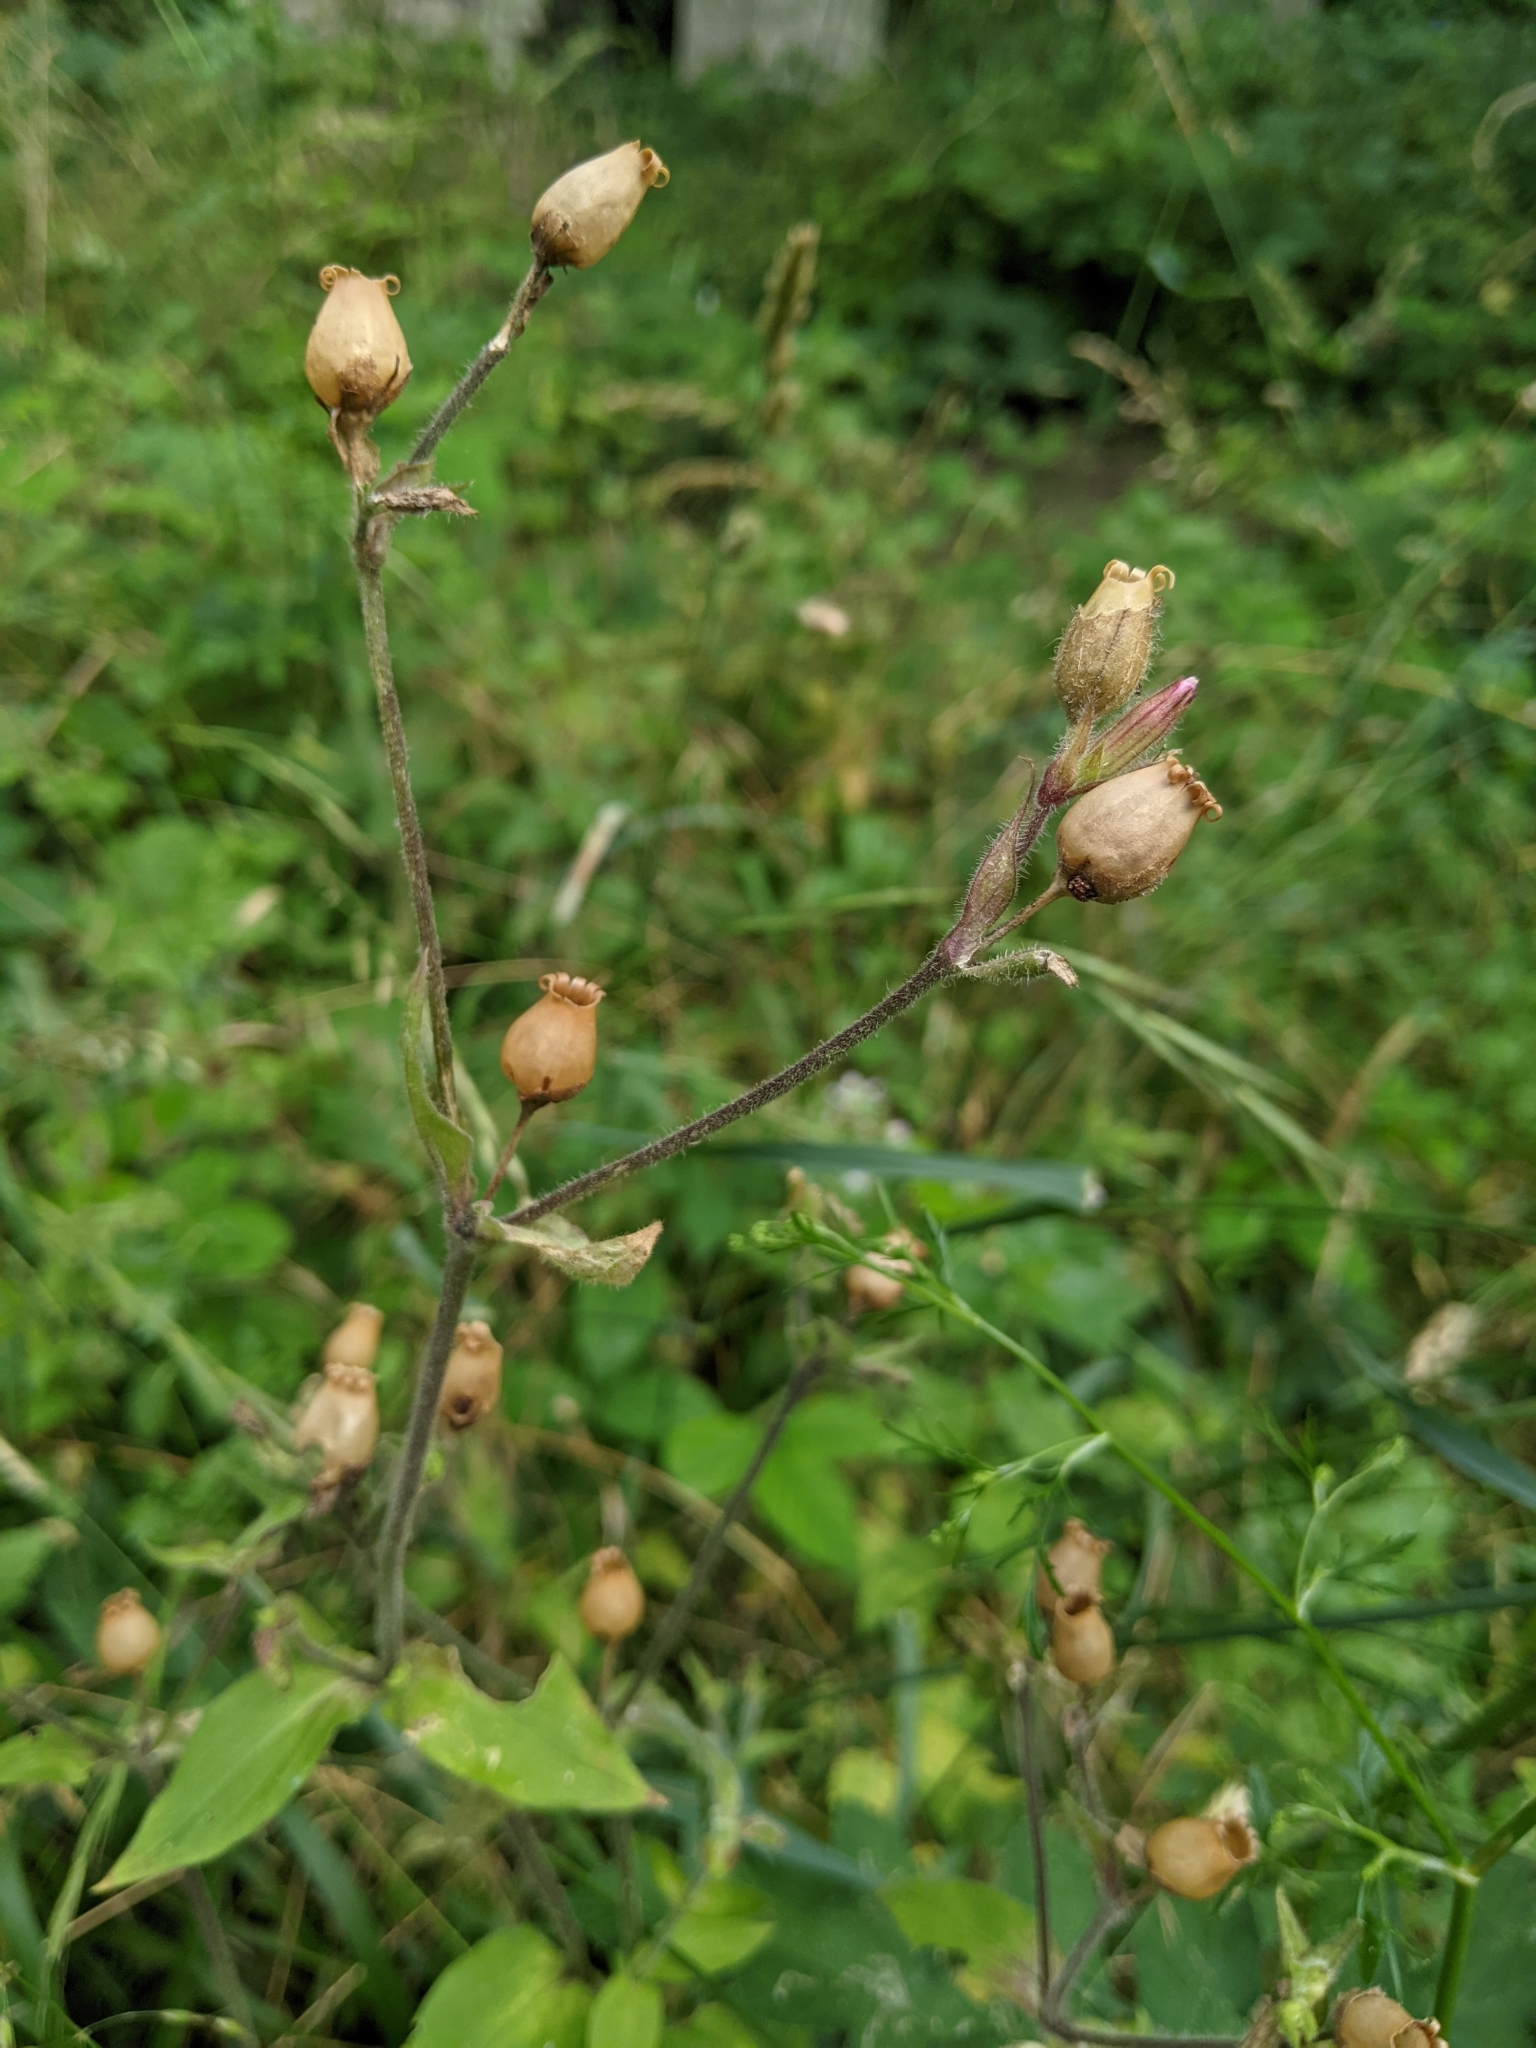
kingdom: Plantae
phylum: Tracheophyta
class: Magnoliopsida
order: Caryophyllales
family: Caryophyllaceae
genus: Silene
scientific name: Silene dioica
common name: Red campion
